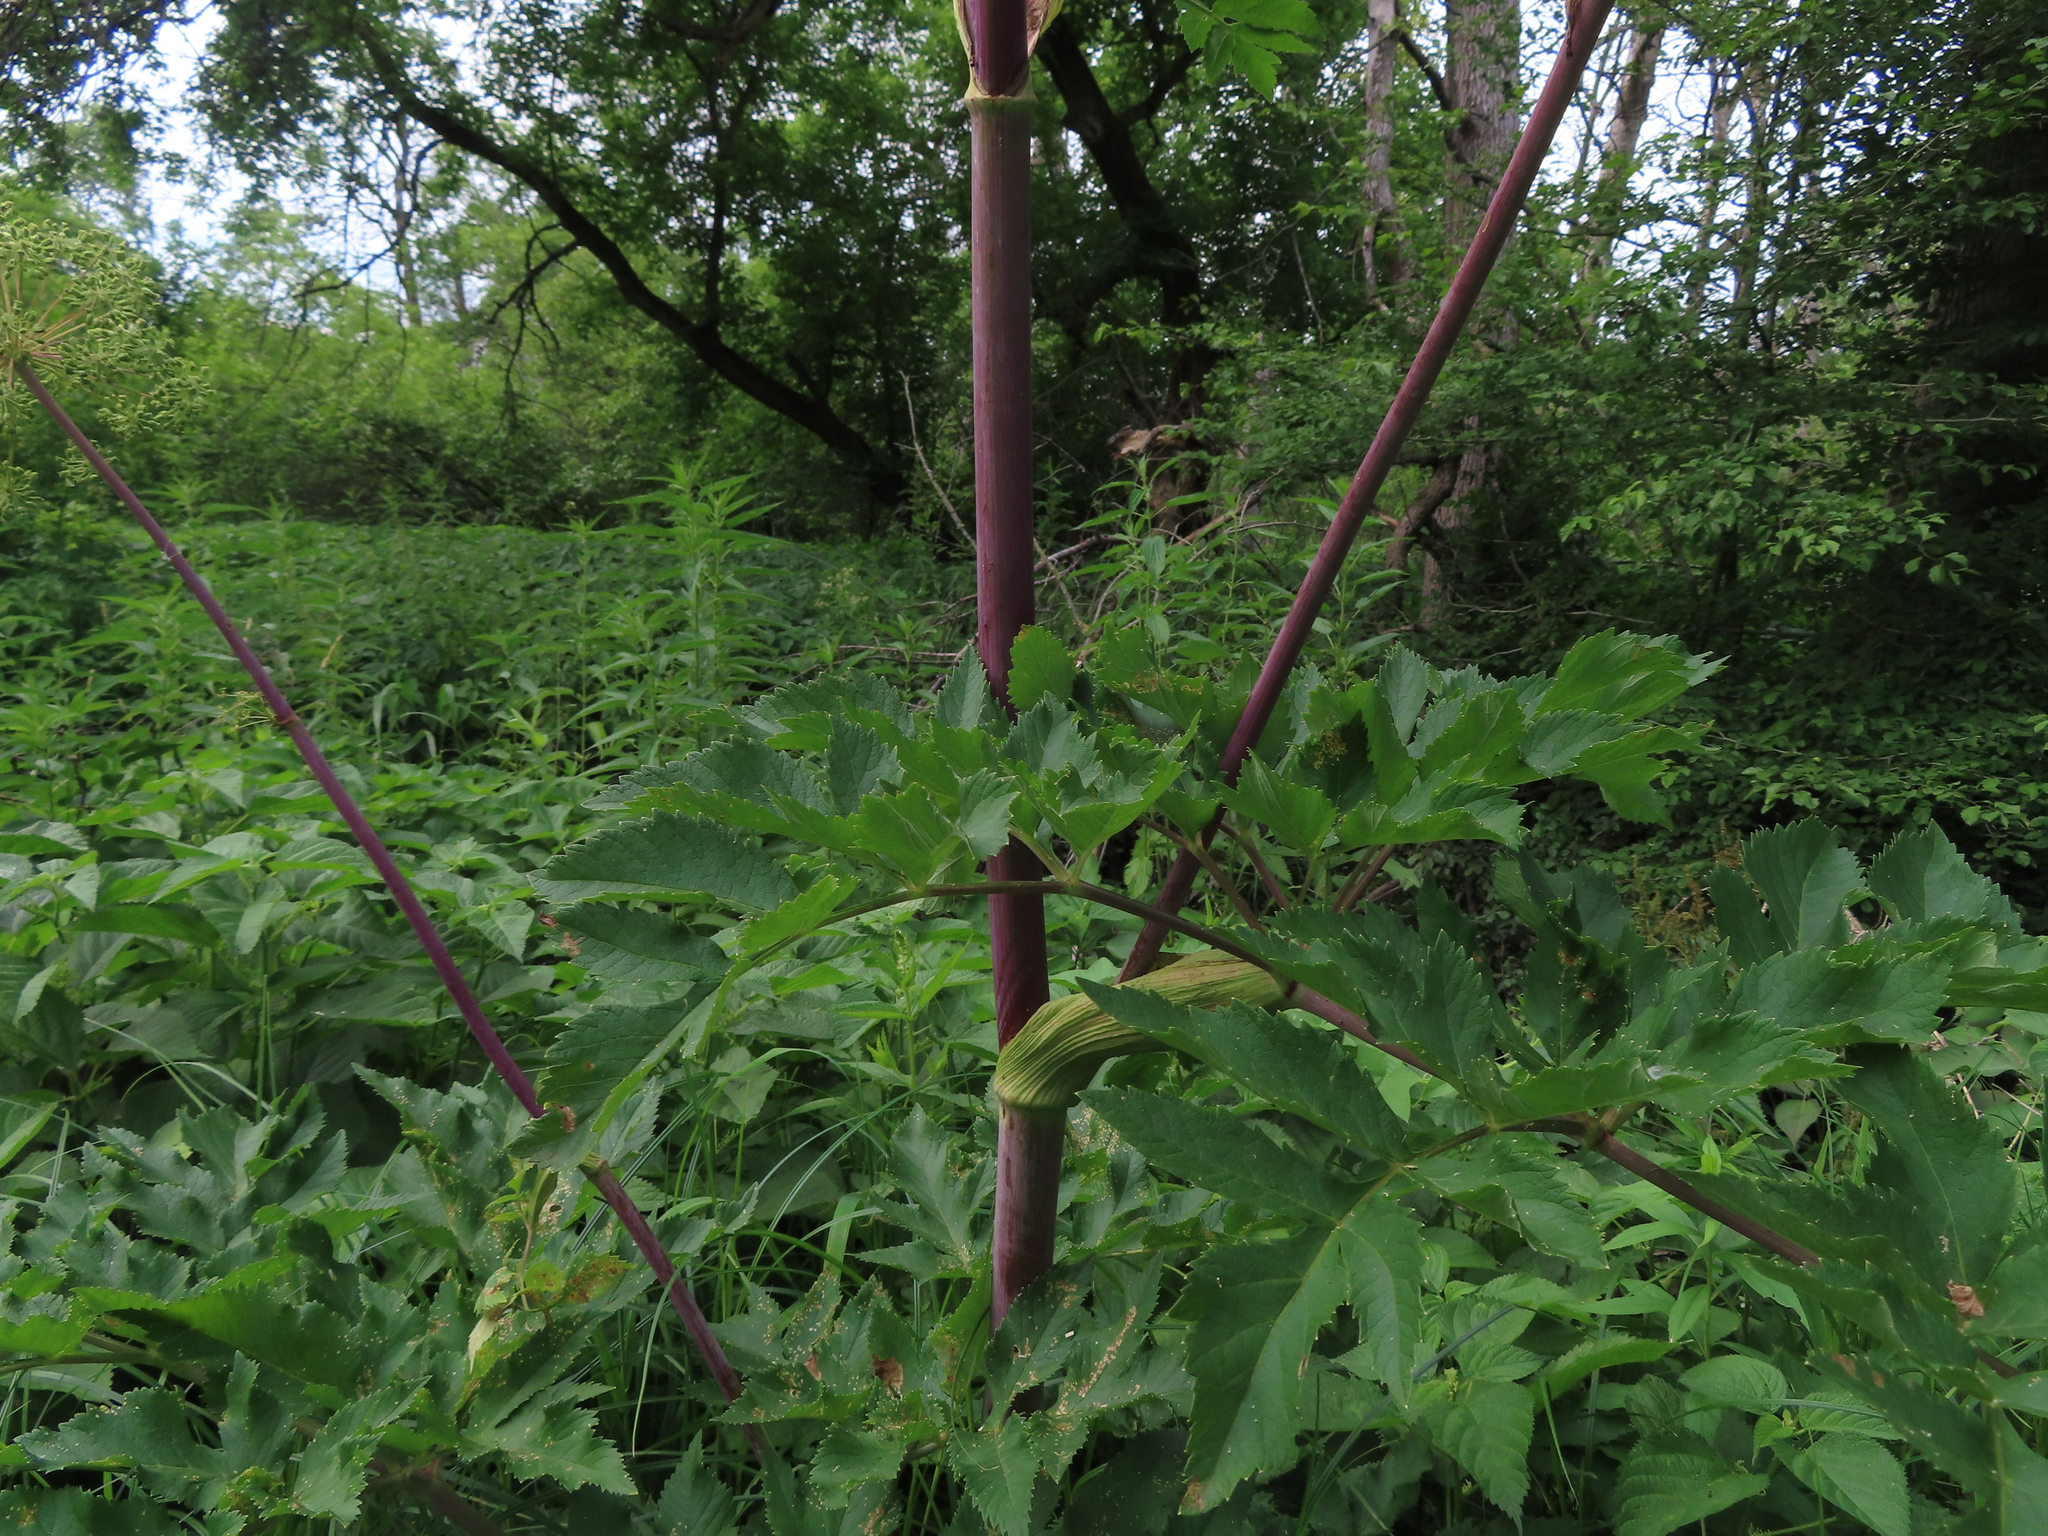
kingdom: Plantae
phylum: Tracheophyta
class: Magnoliopsida
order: Apiales
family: Apiaceae
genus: Angelica
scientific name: Angelica atropurpurea
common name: Great angelica
